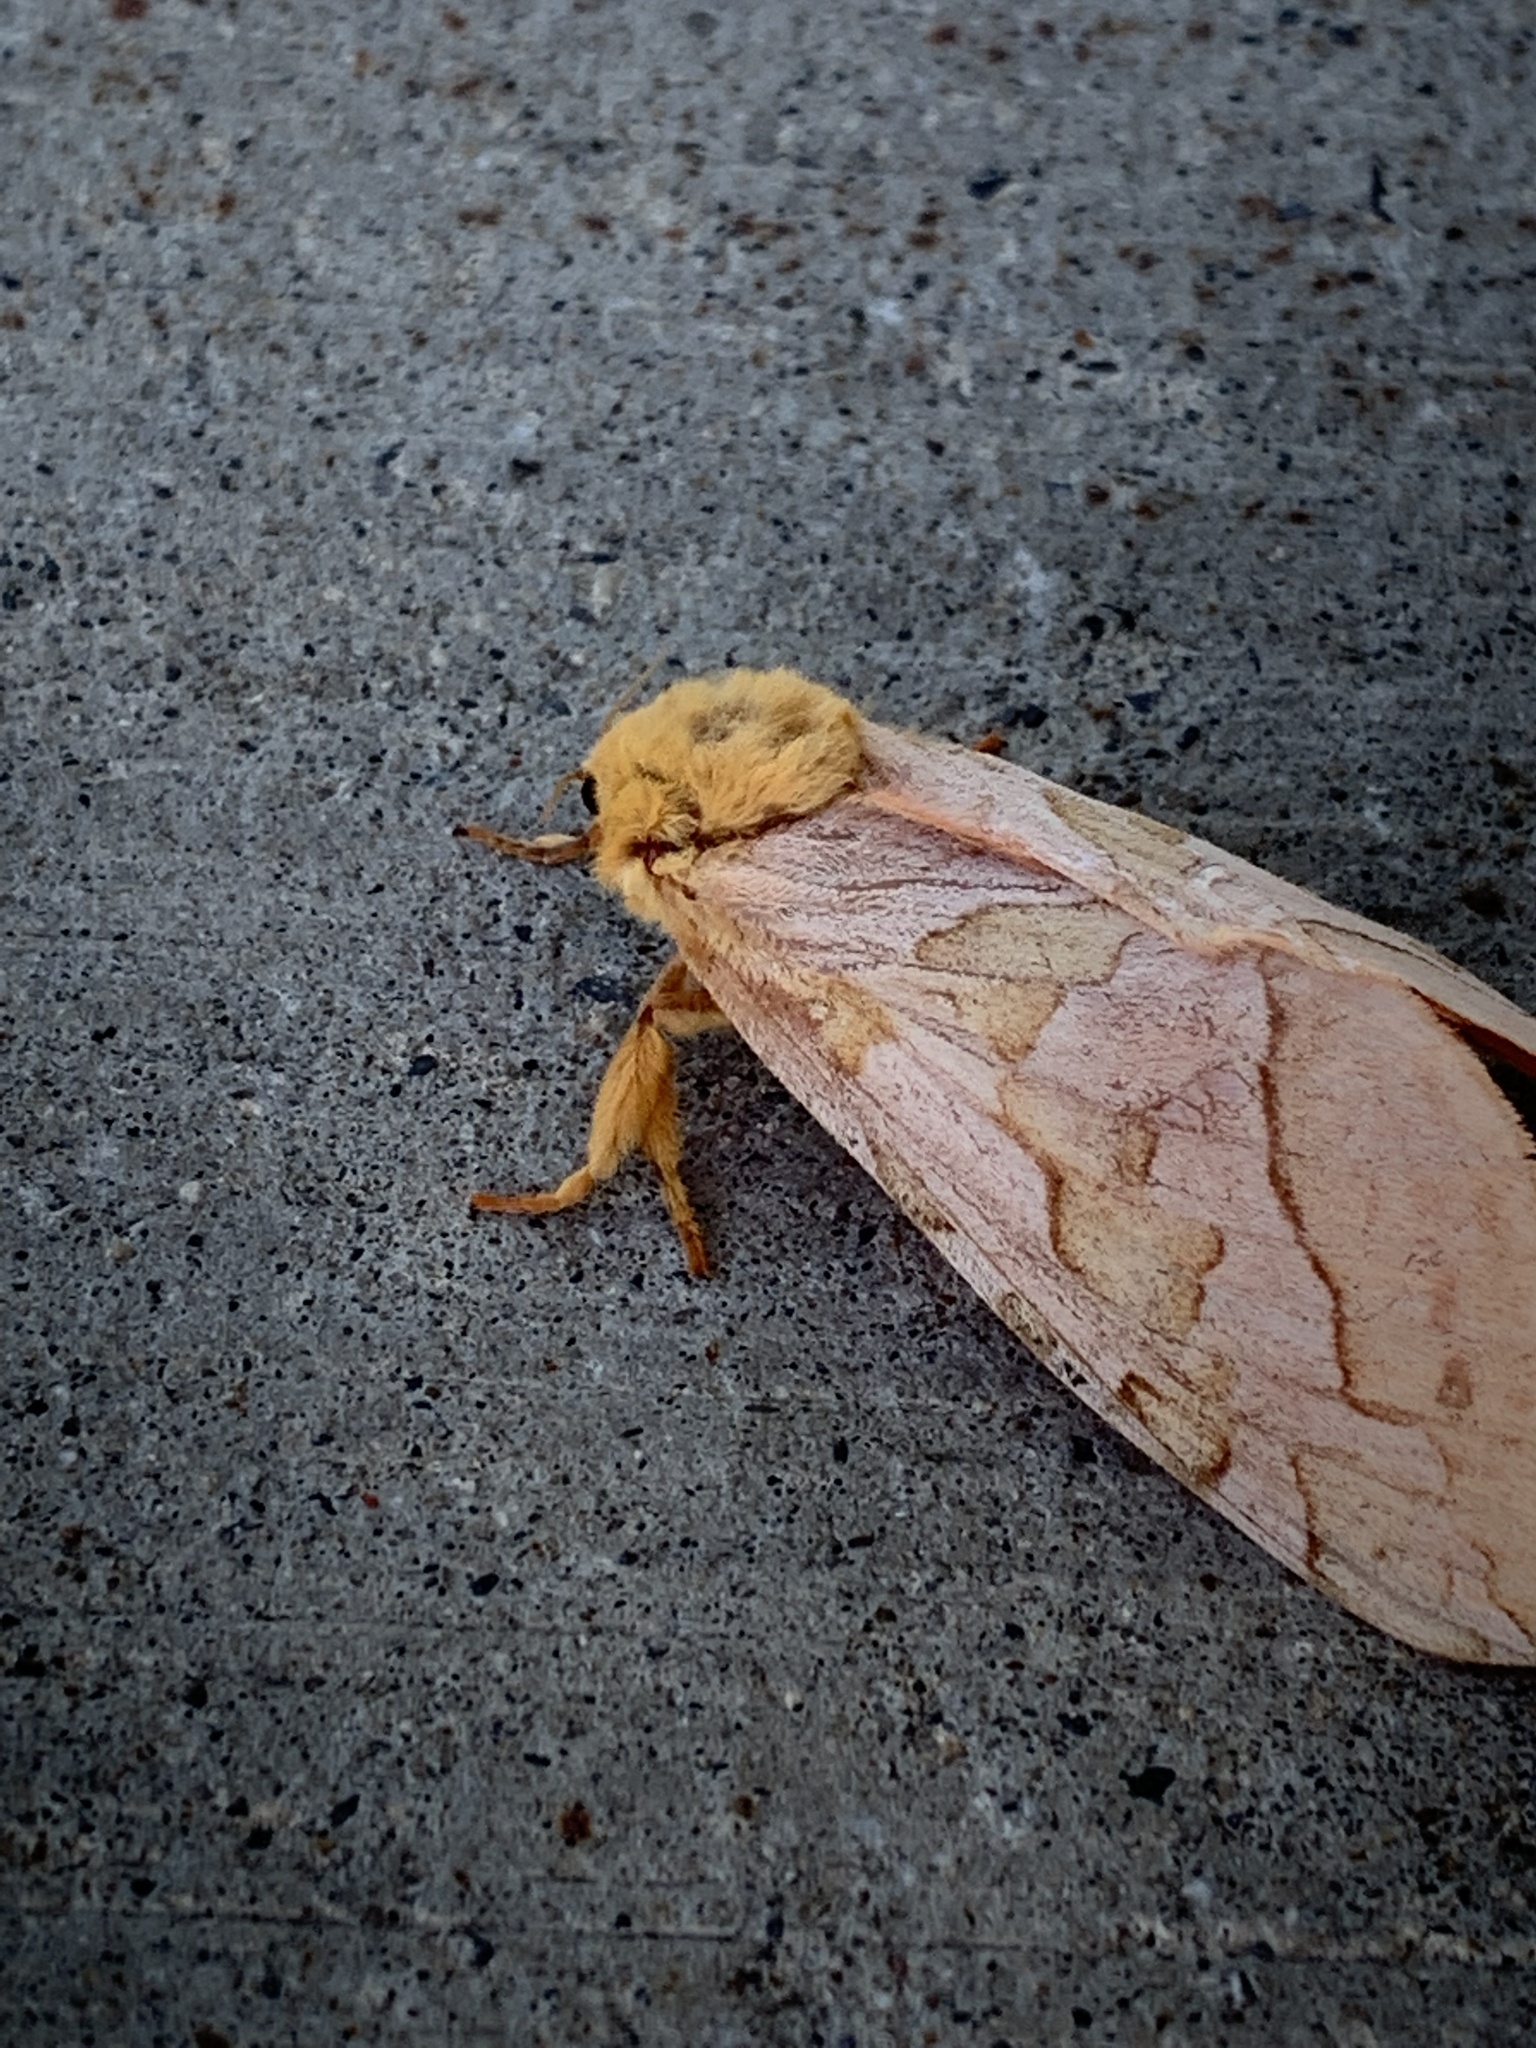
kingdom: Animalia
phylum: Arthropoda
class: Insecta
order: Lepidoptera
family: Hepialidae
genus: Sthenopis
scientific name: Sthenopis purpurascens
